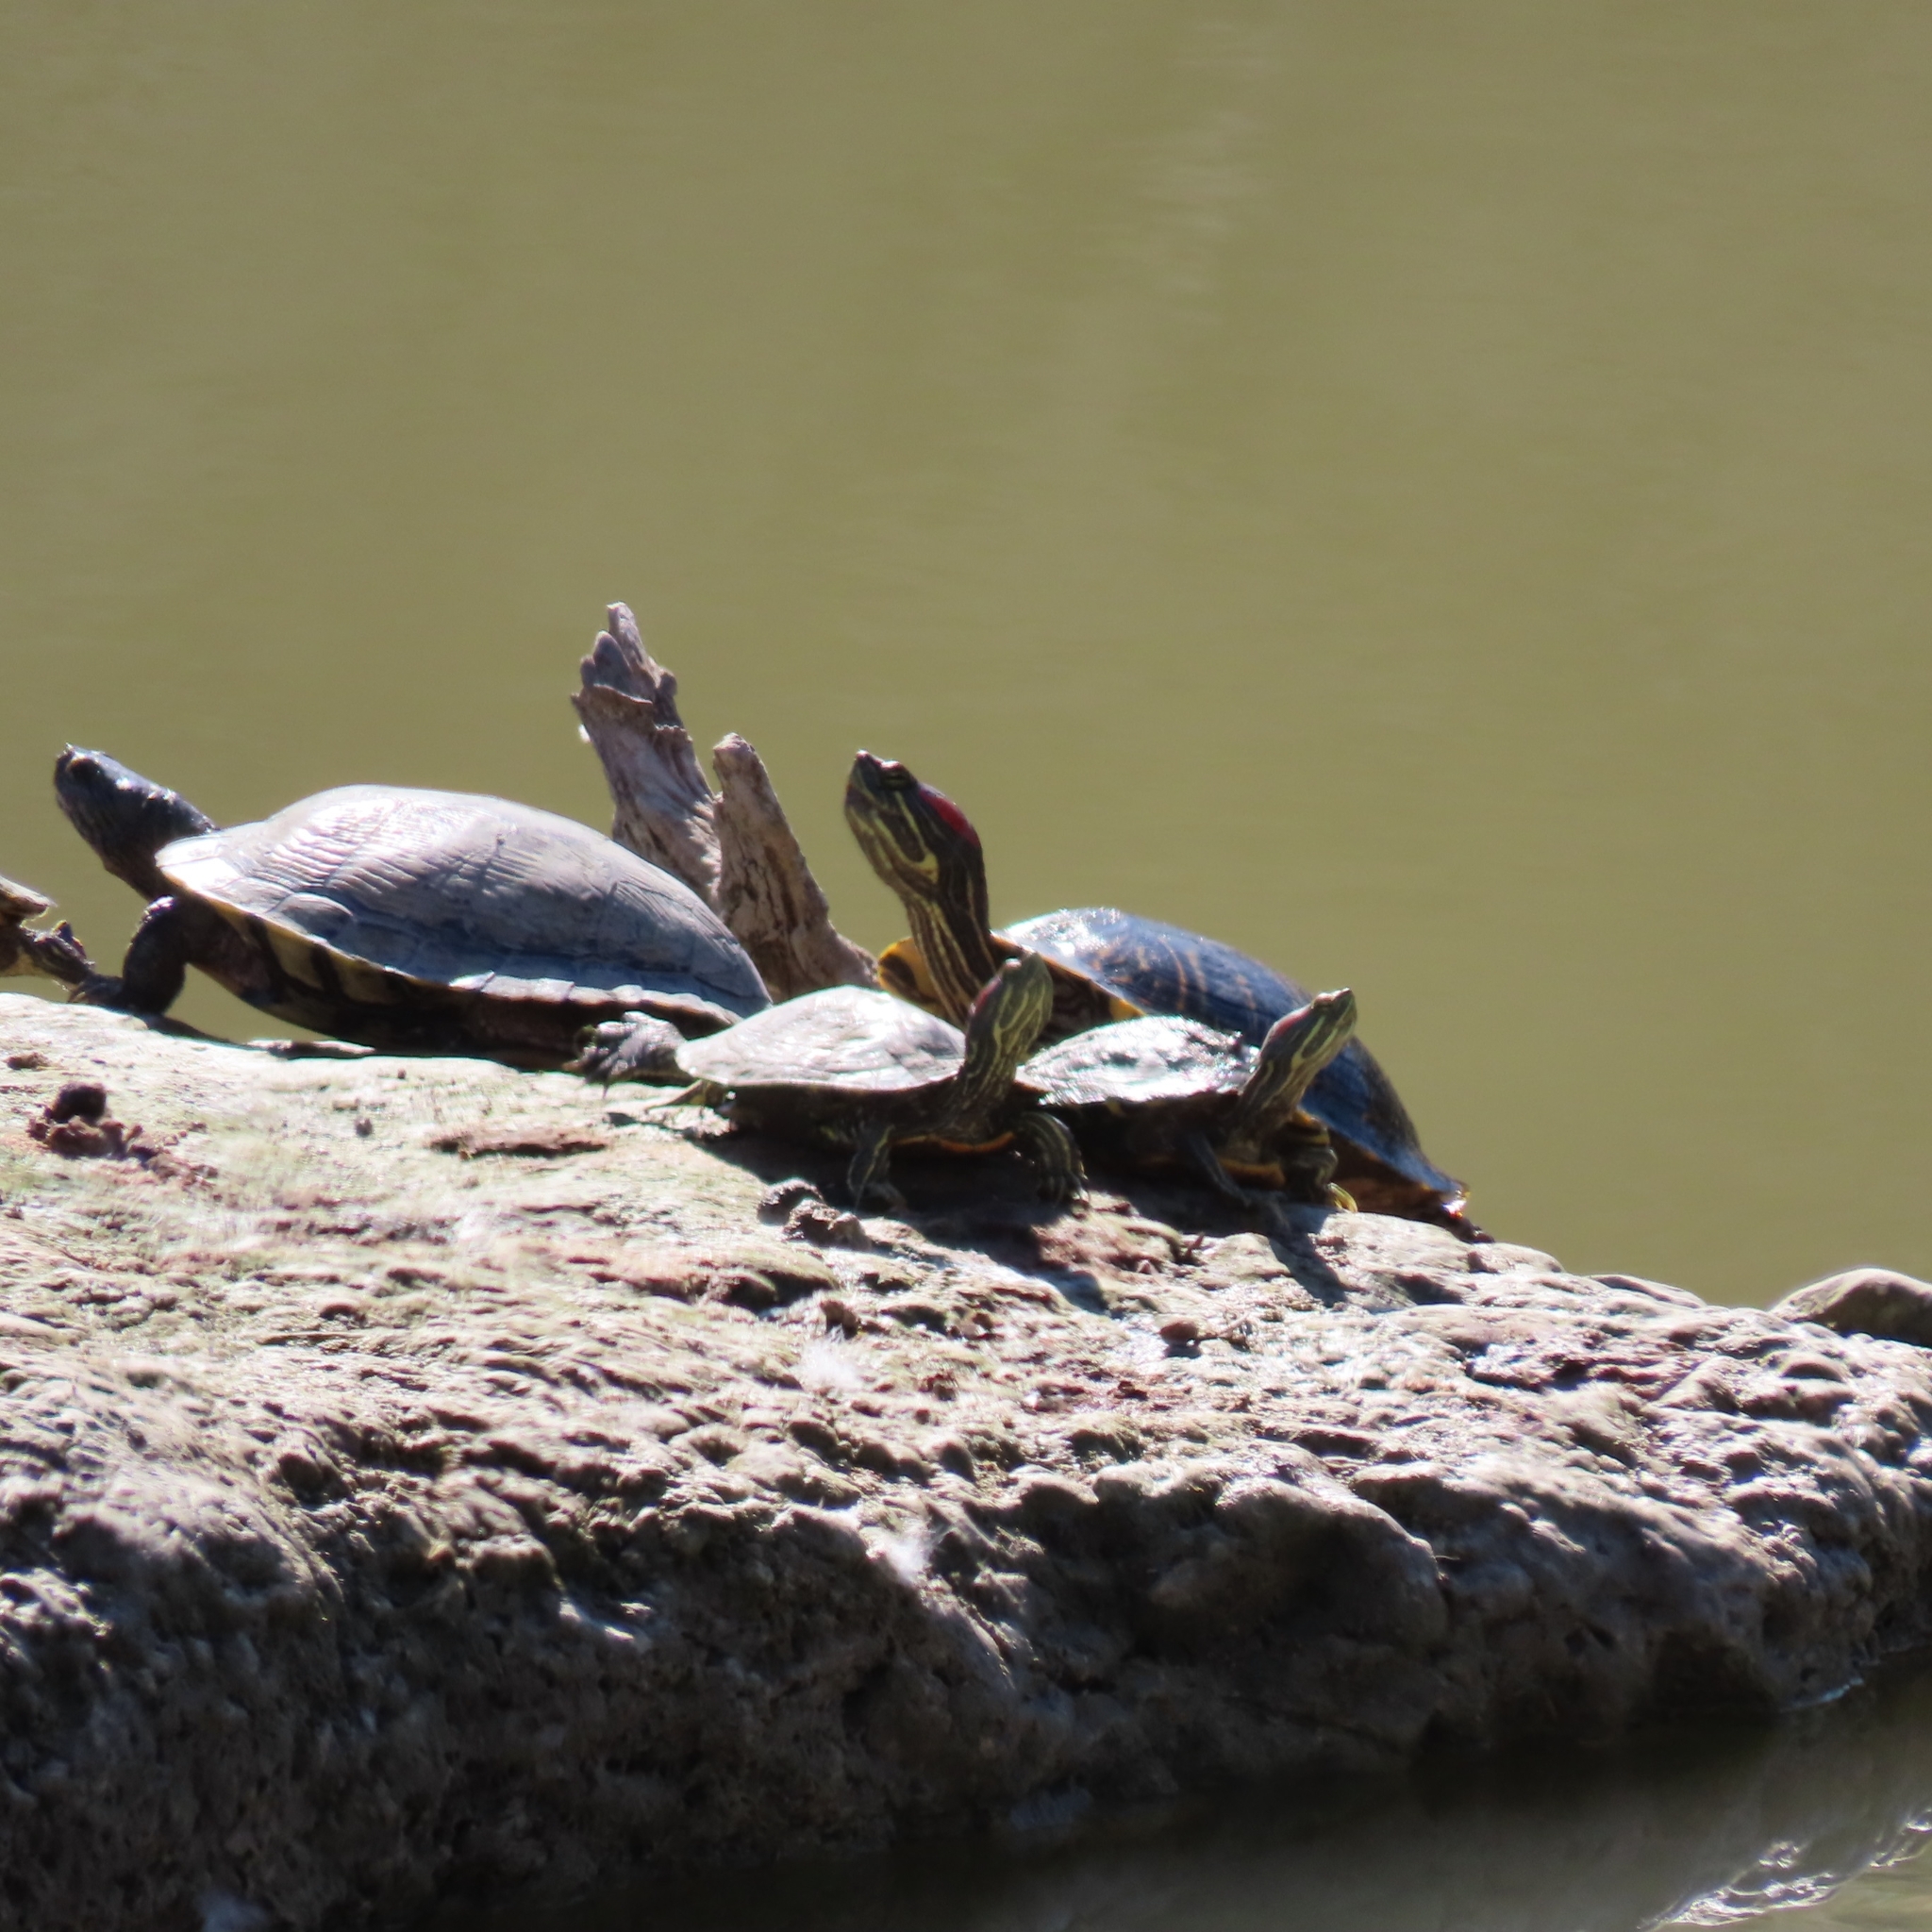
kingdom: Animalia
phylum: Chordata
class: Testudines
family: Emydidae
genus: Trachemys
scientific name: Trachemys scripta
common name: Slider
